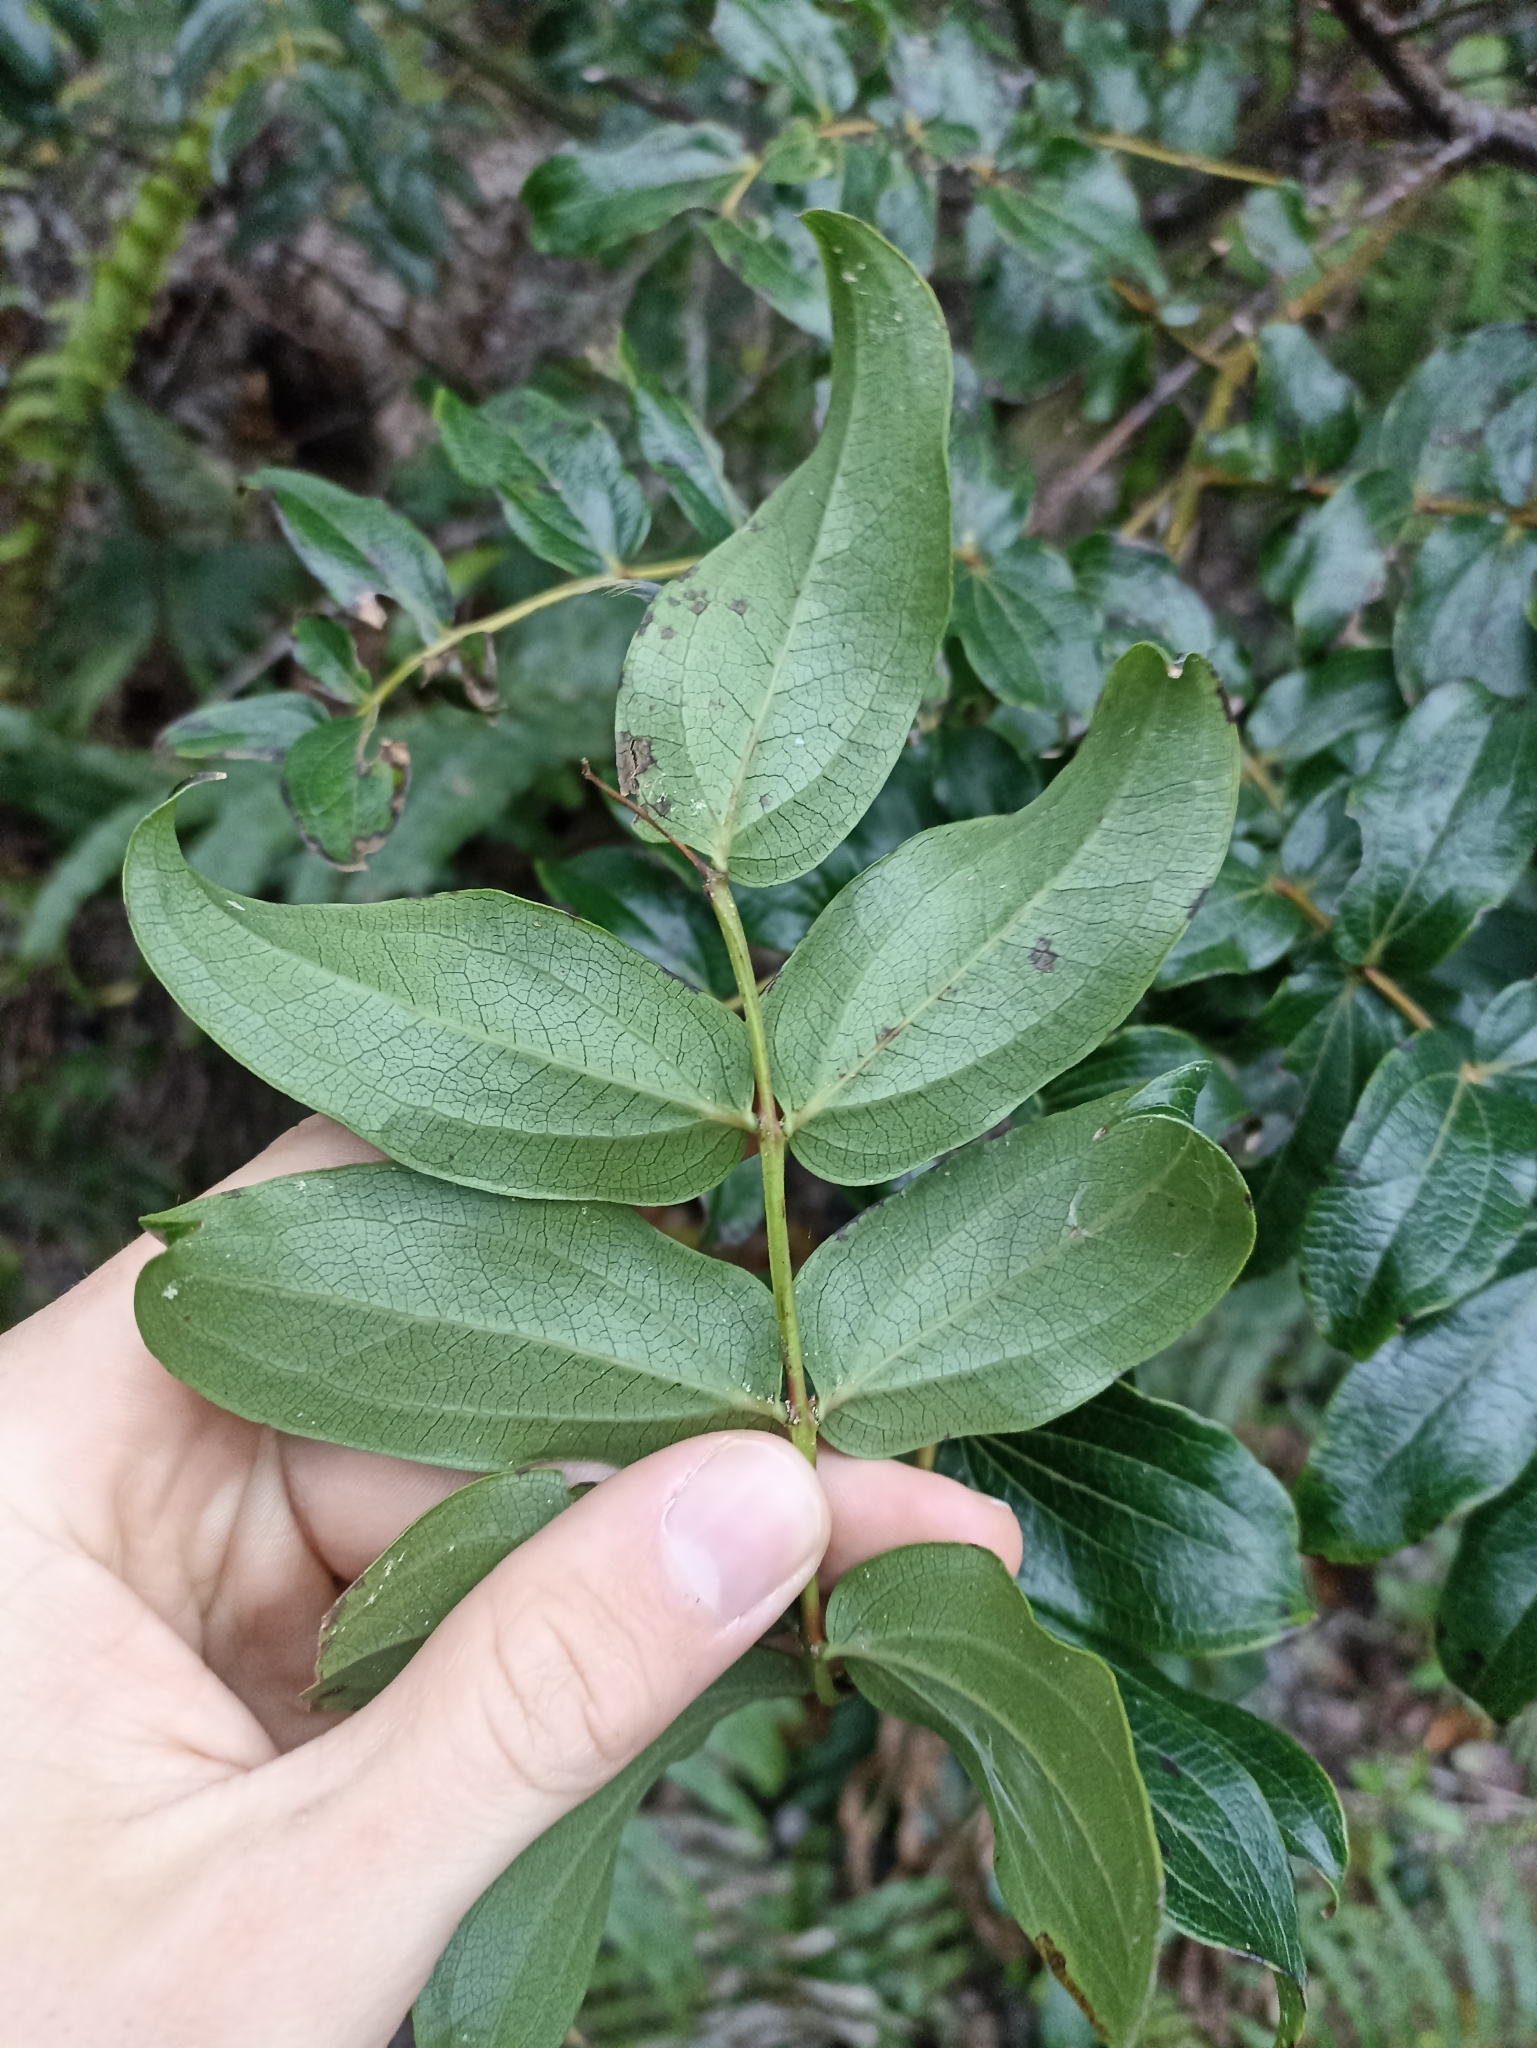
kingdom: Plantae
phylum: Tracheophyta
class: Magnoliopsida
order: Cucurbitales
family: Coriariaceae
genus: Coriaria
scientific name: Coriaria arborea
